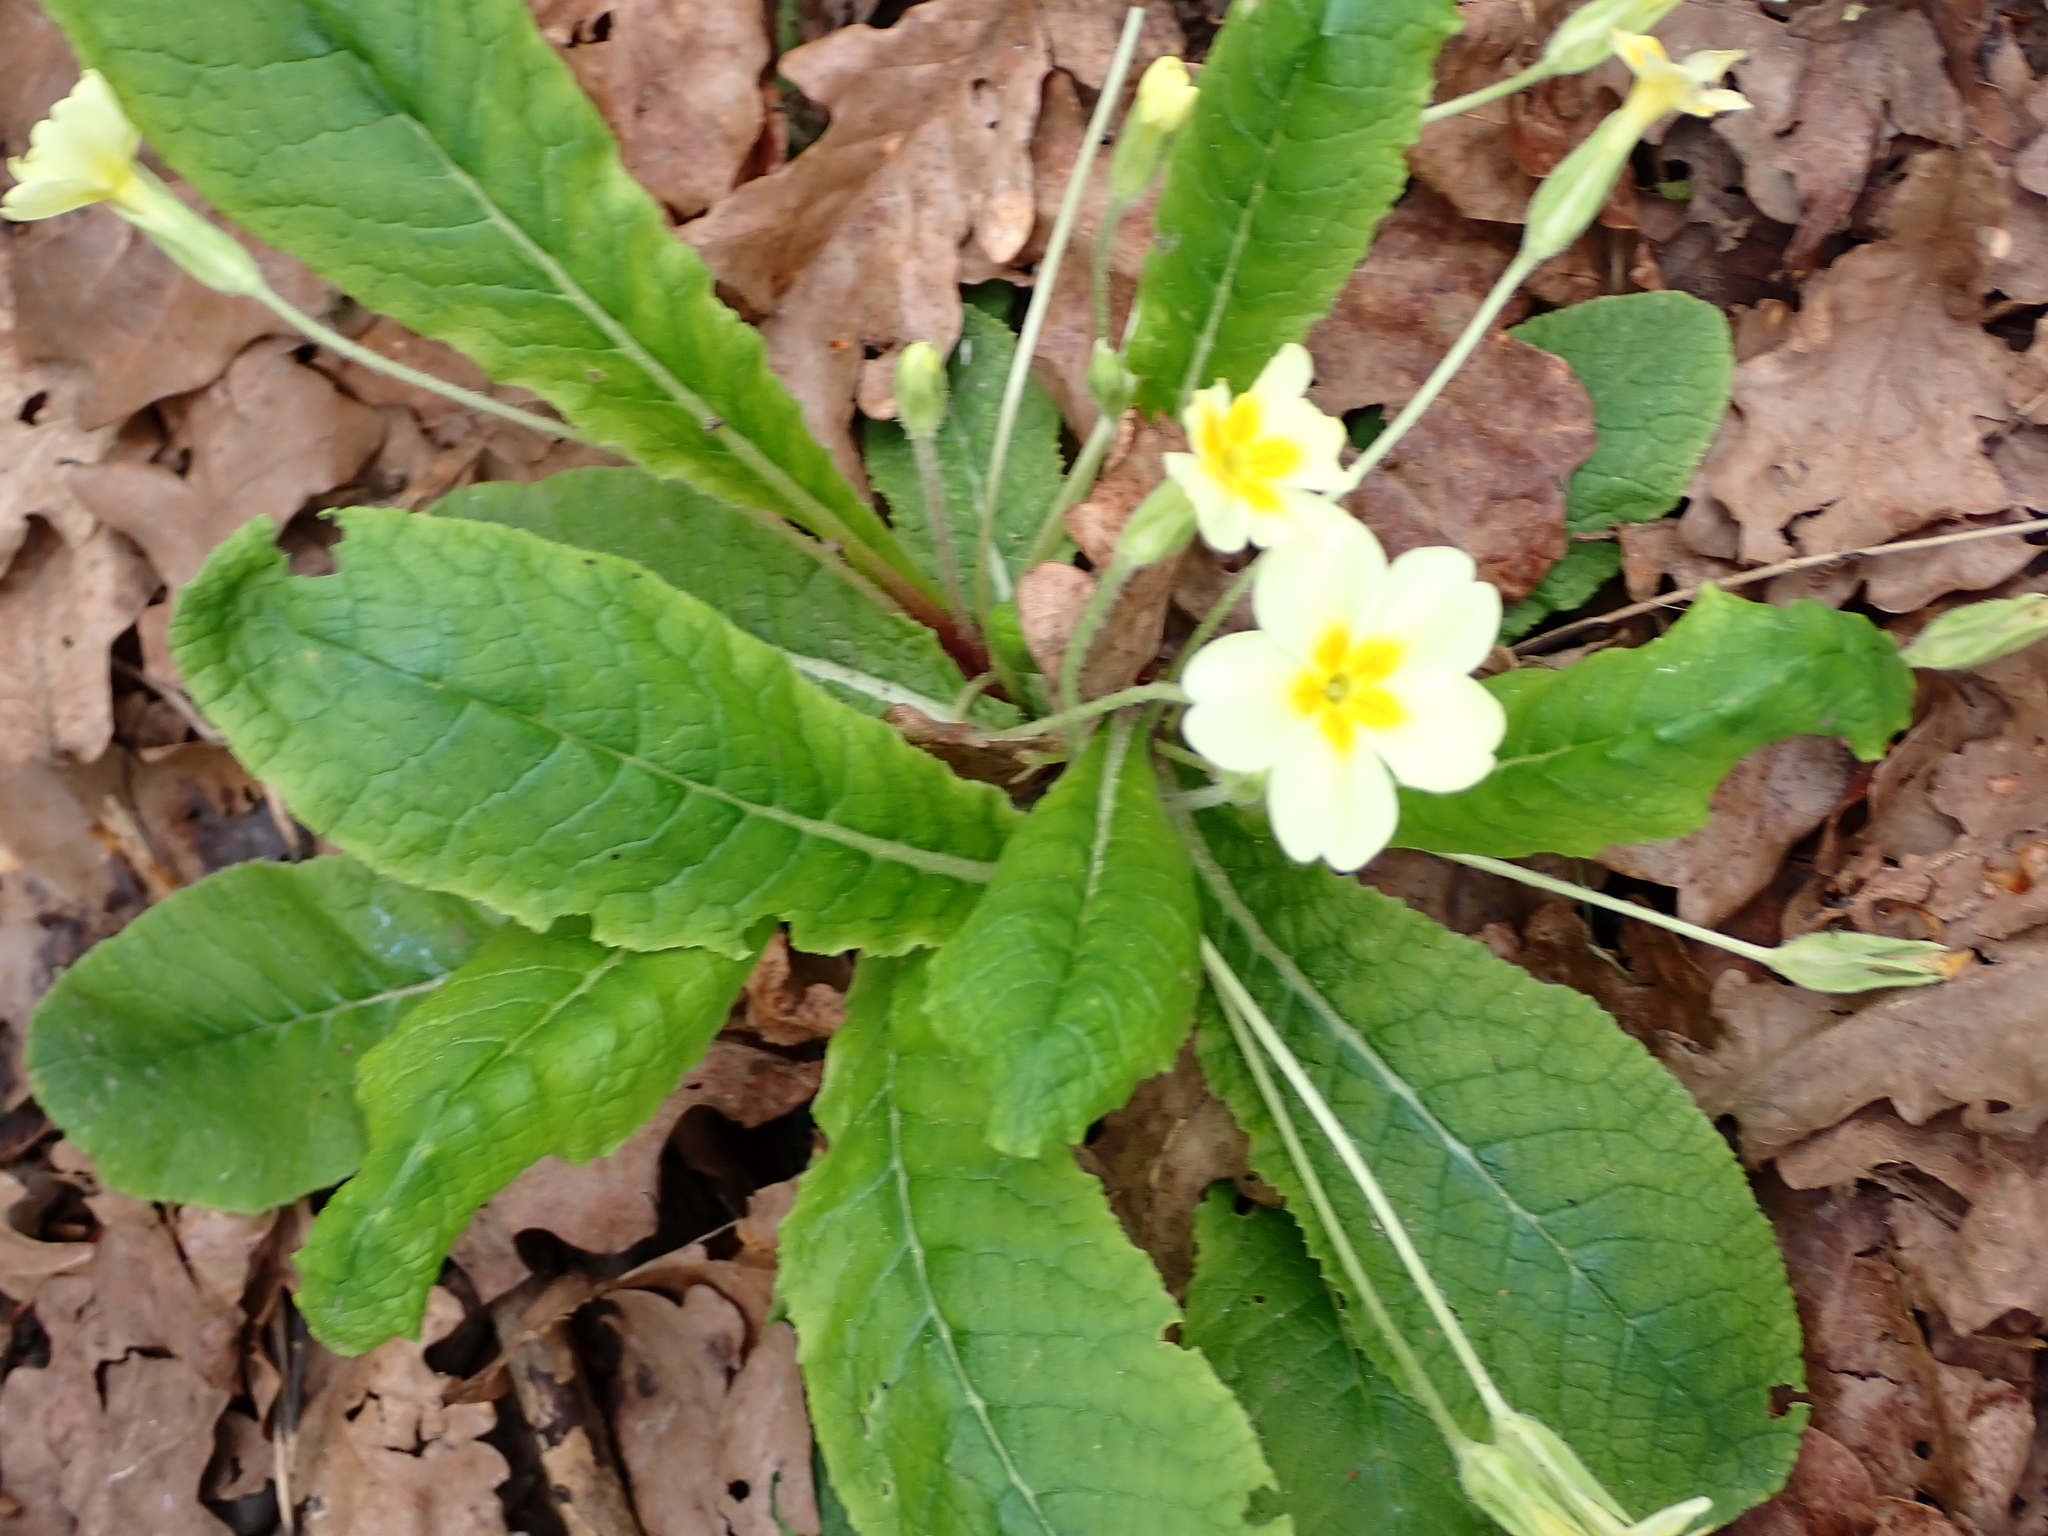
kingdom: Plantae
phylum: Tracheophyta
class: Magnoliopsida
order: Ericales
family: Primulaceae
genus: Primula
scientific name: Primula vulgaris
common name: Primrose
